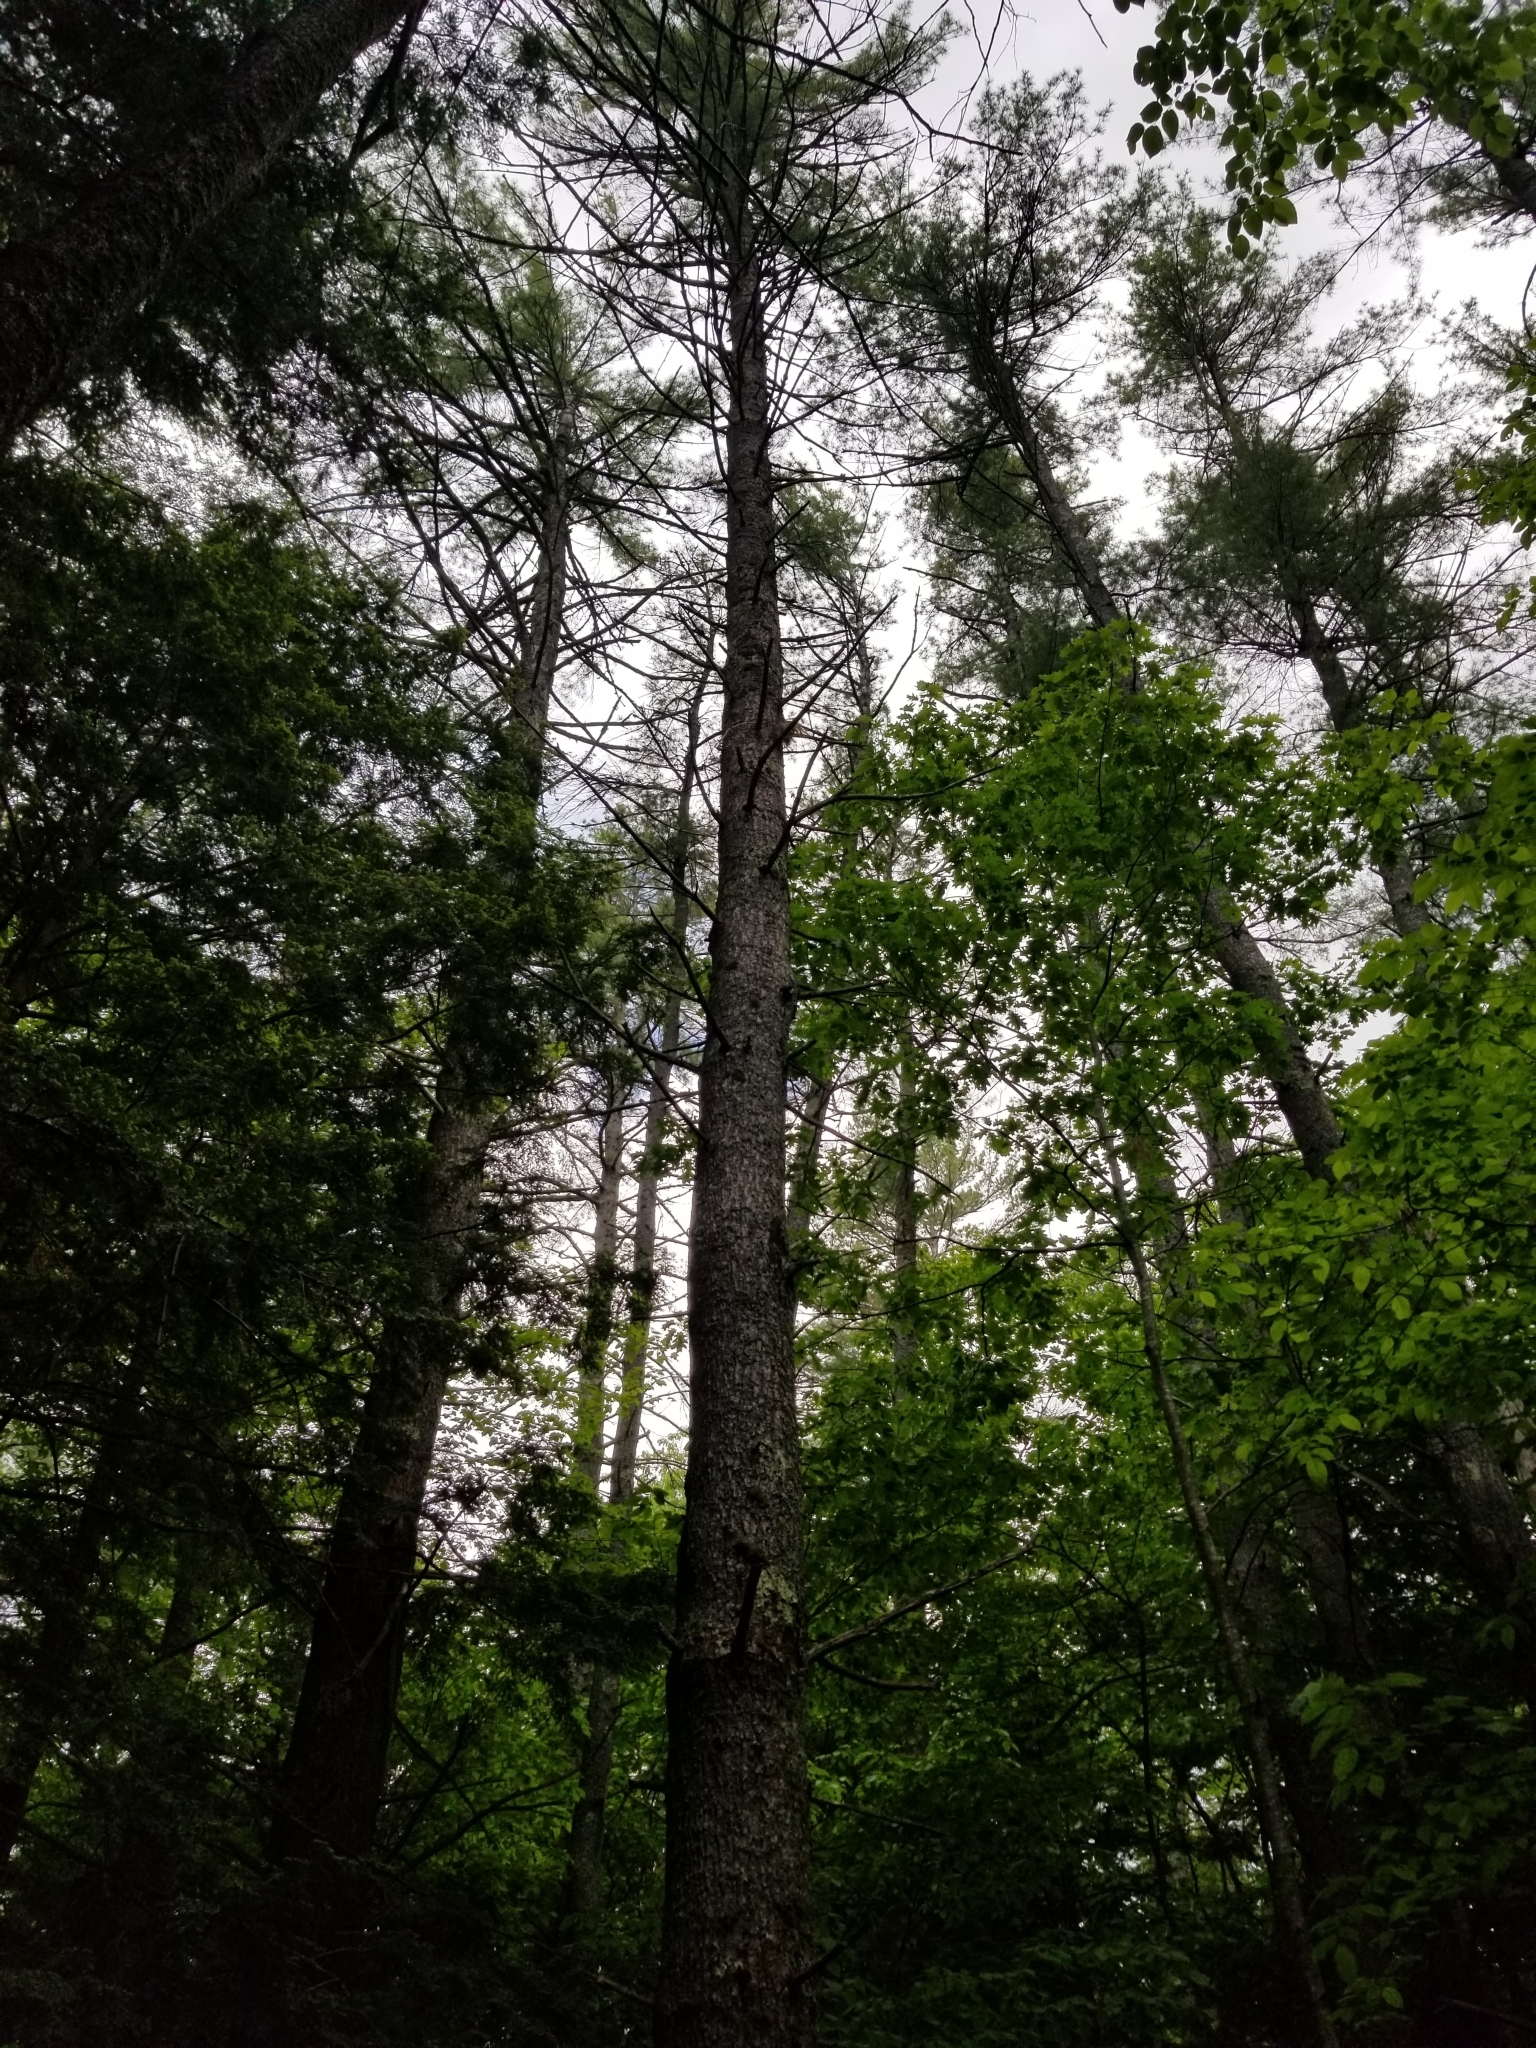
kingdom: Plantae
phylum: Tracheophyta
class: Pinopsida
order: Pinales
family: Pinaceae
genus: Pinus
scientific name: Pinus strobus
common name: Weymouth pine
